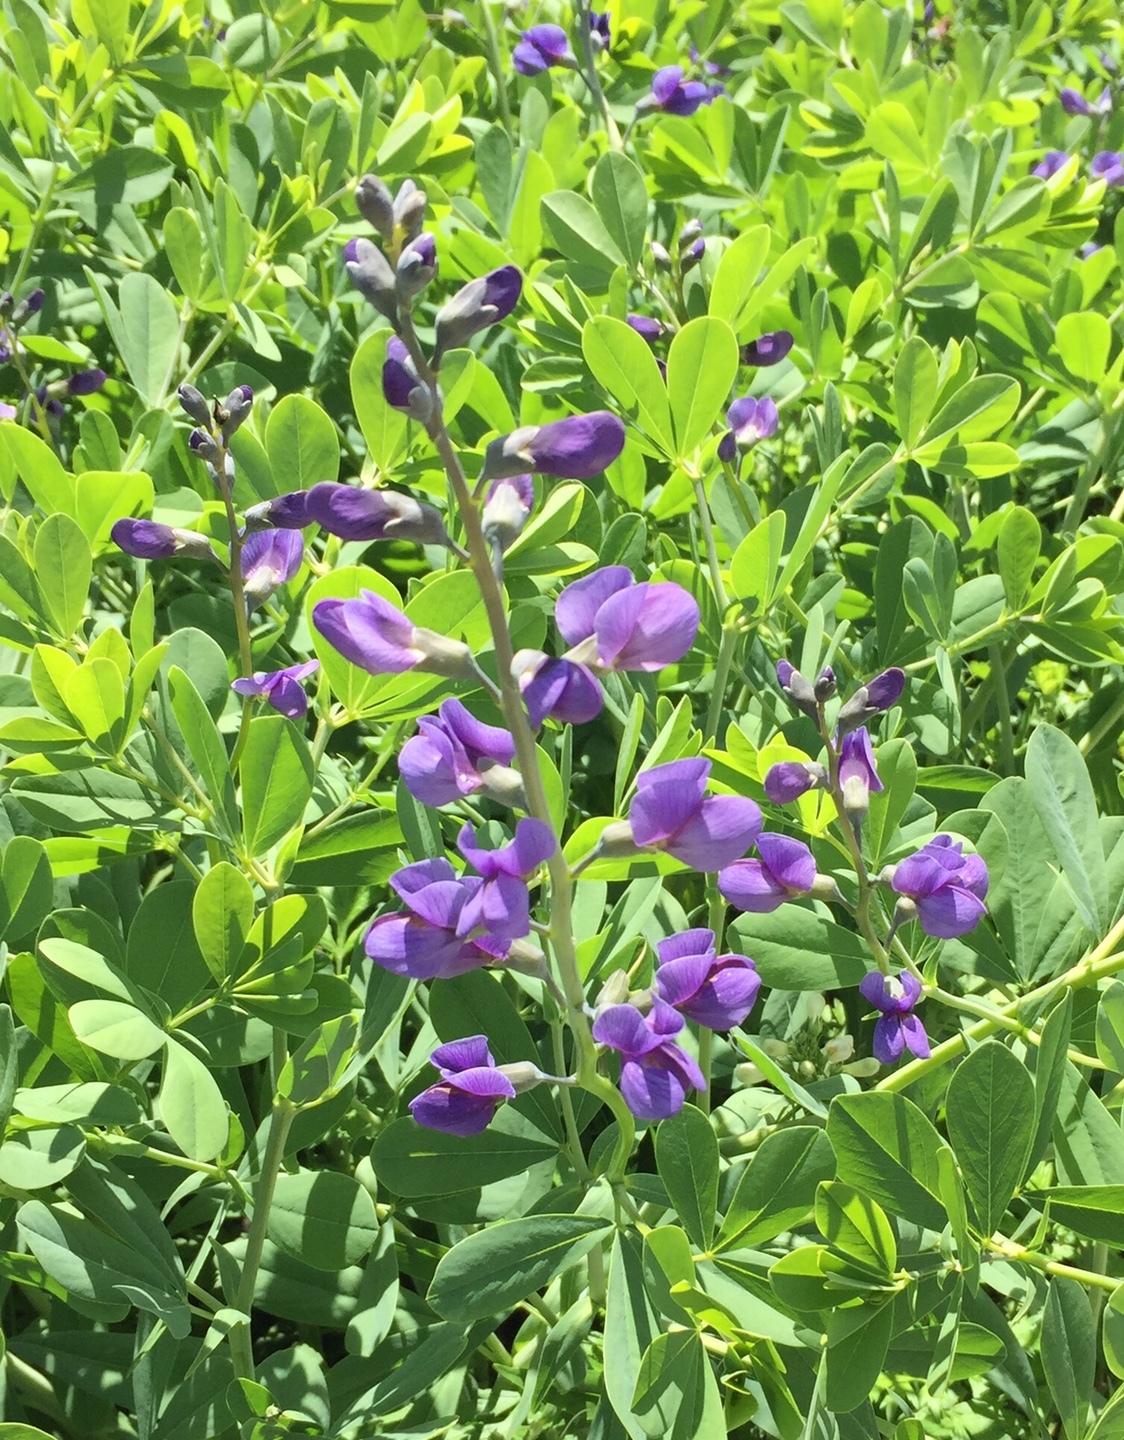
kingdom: Plantae
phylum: Tracheophyta
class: Magnoliopsida
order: Fabales
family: Fabaceae
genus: Baptisia
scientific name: Baptisia australis
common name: Blue false indigo
